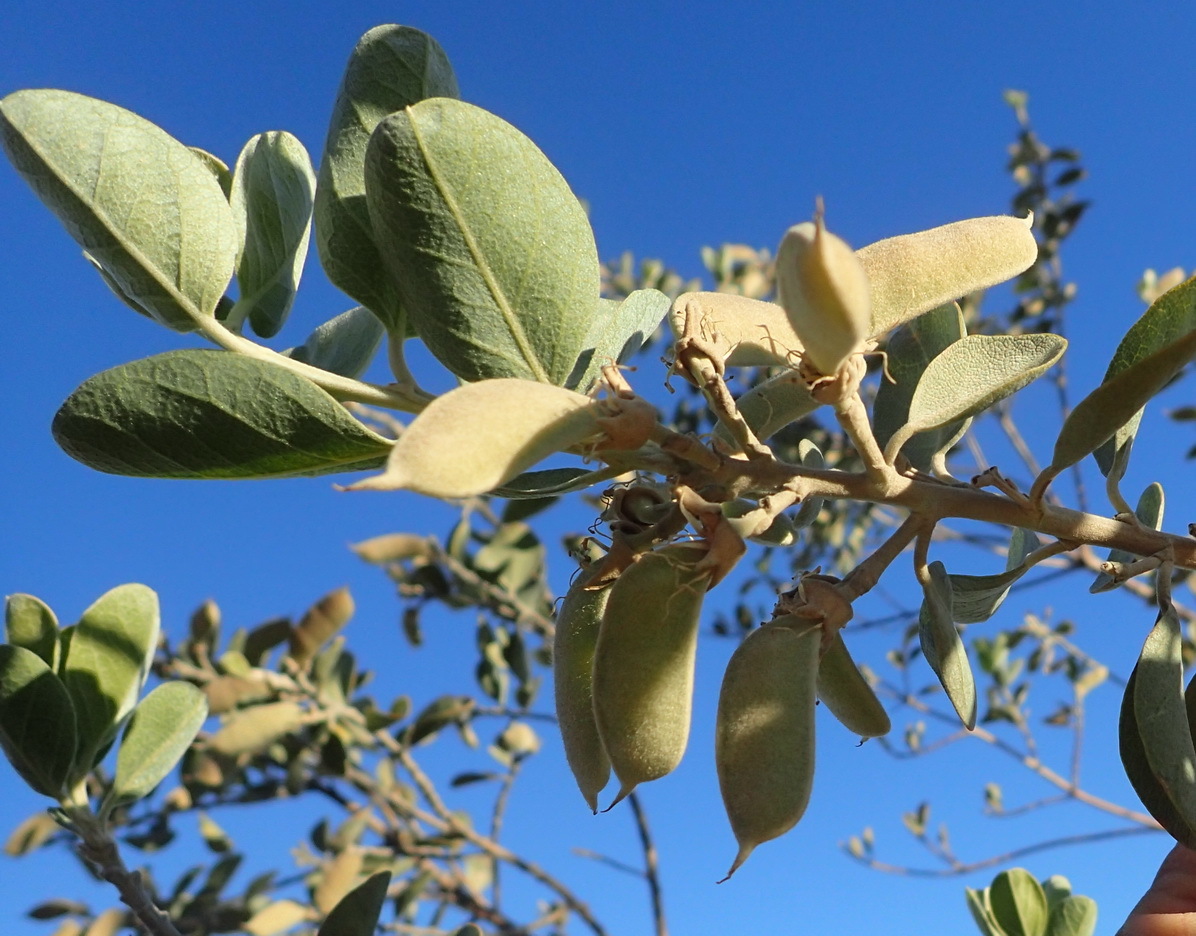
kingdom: Plantae
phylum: Tracheophyta
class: Magnoliopsida
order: Fabales
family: Fabaceae
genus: Stirtonanthus
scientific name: Stirtonanthus taylorianus
